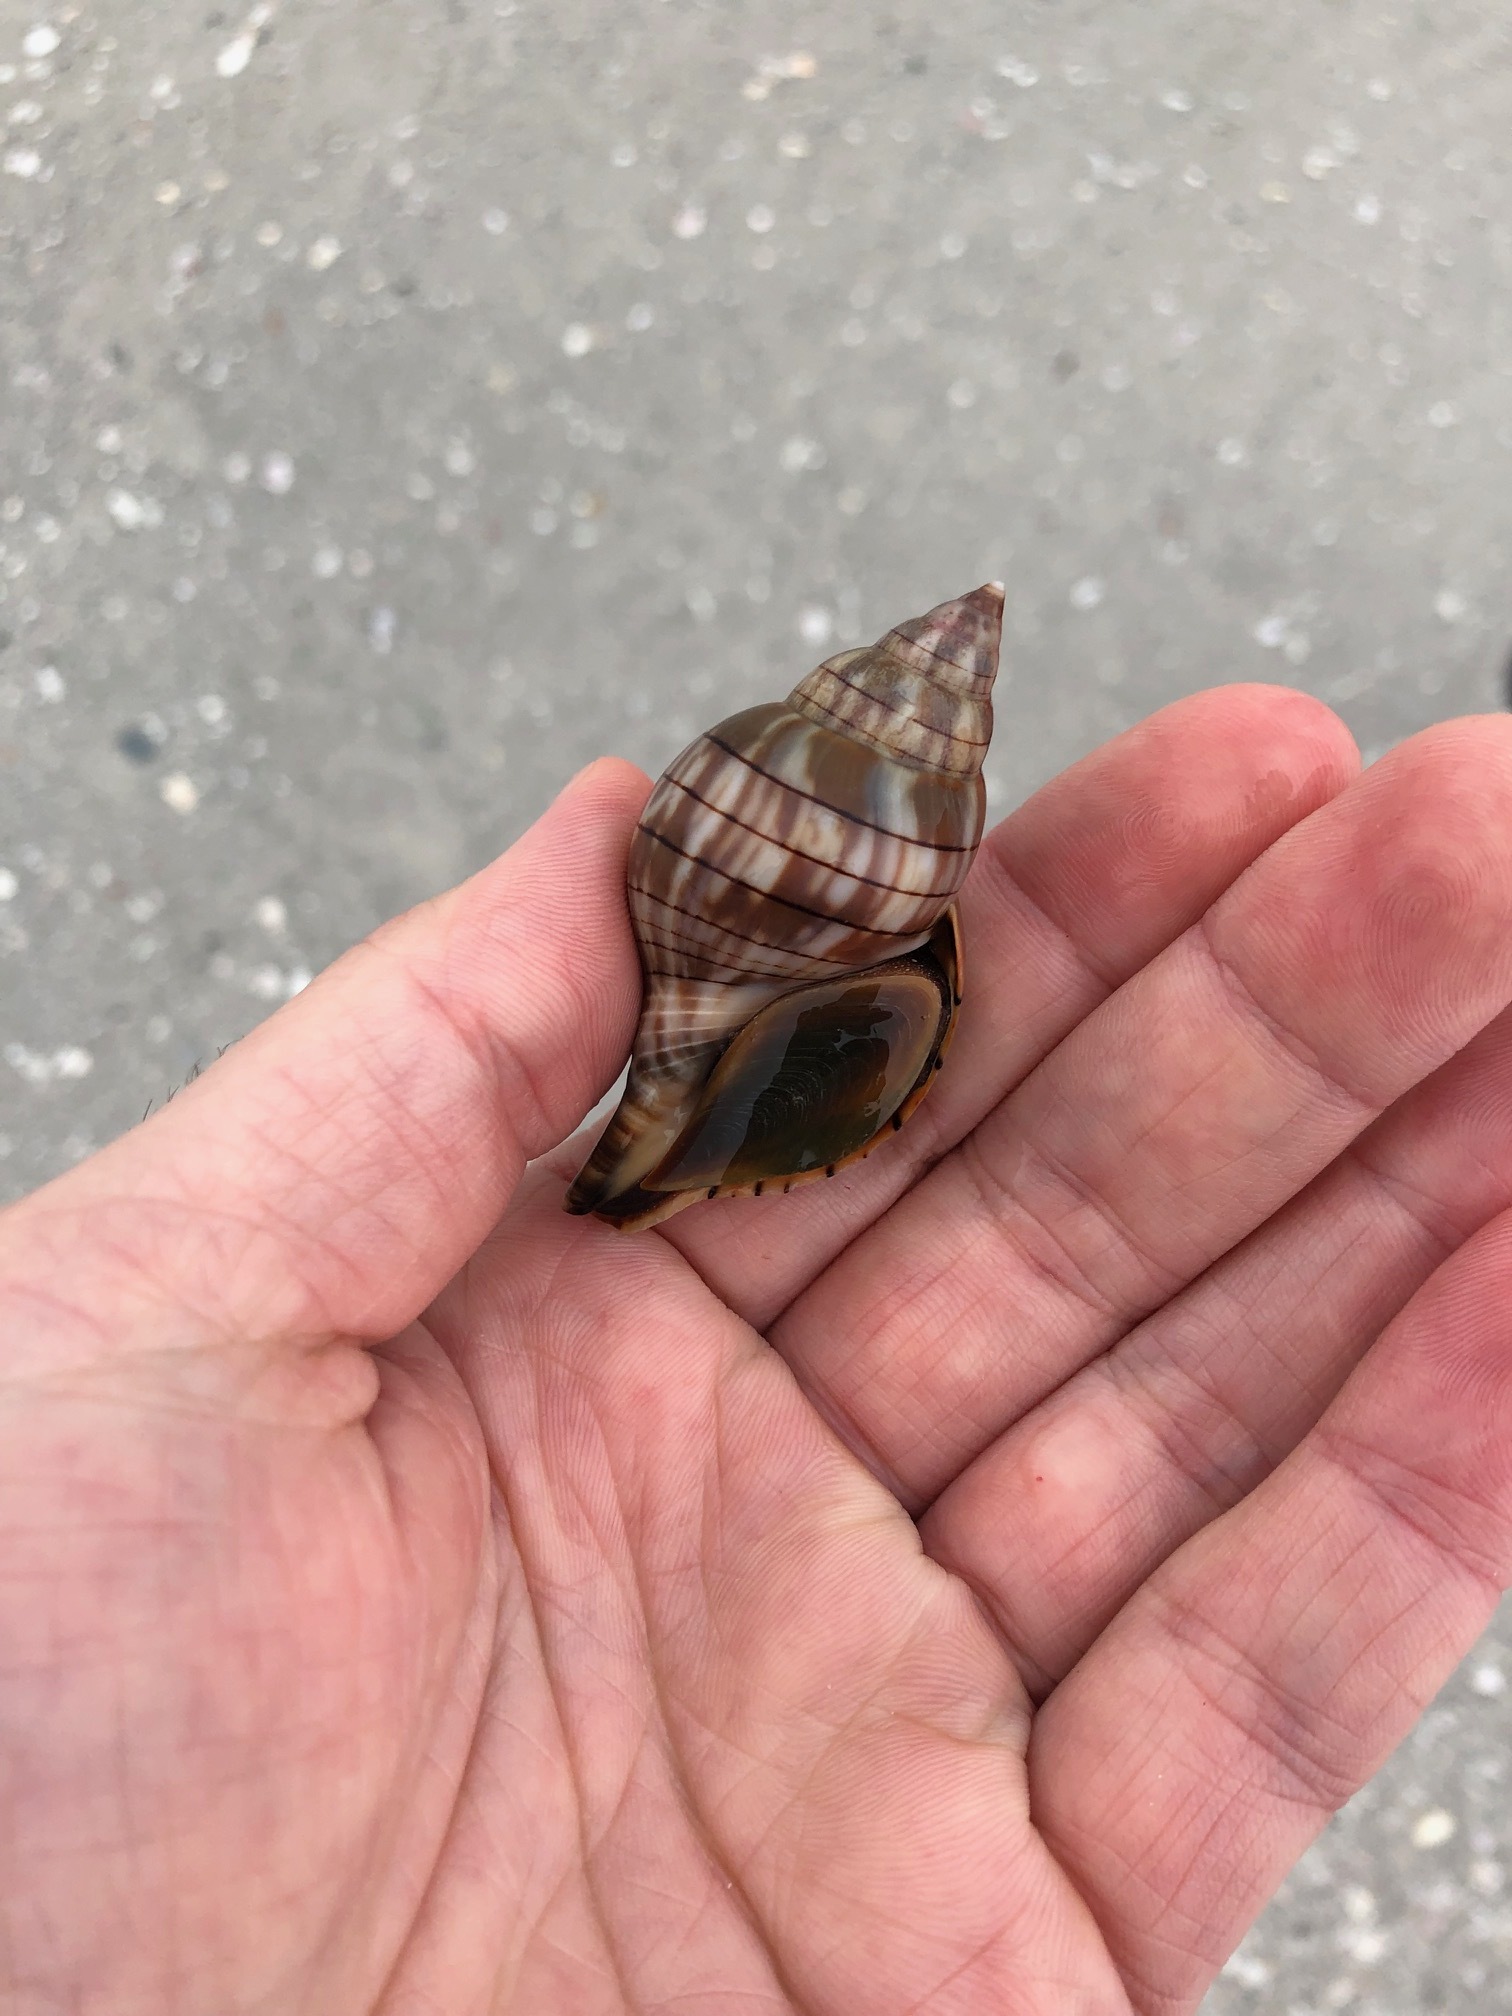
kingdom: Animalia
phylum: Mollusca
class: Gastropoda
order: Neogastropoda
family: Fasciolariidae
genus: Cinctura
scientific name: Cinctura hunteria
